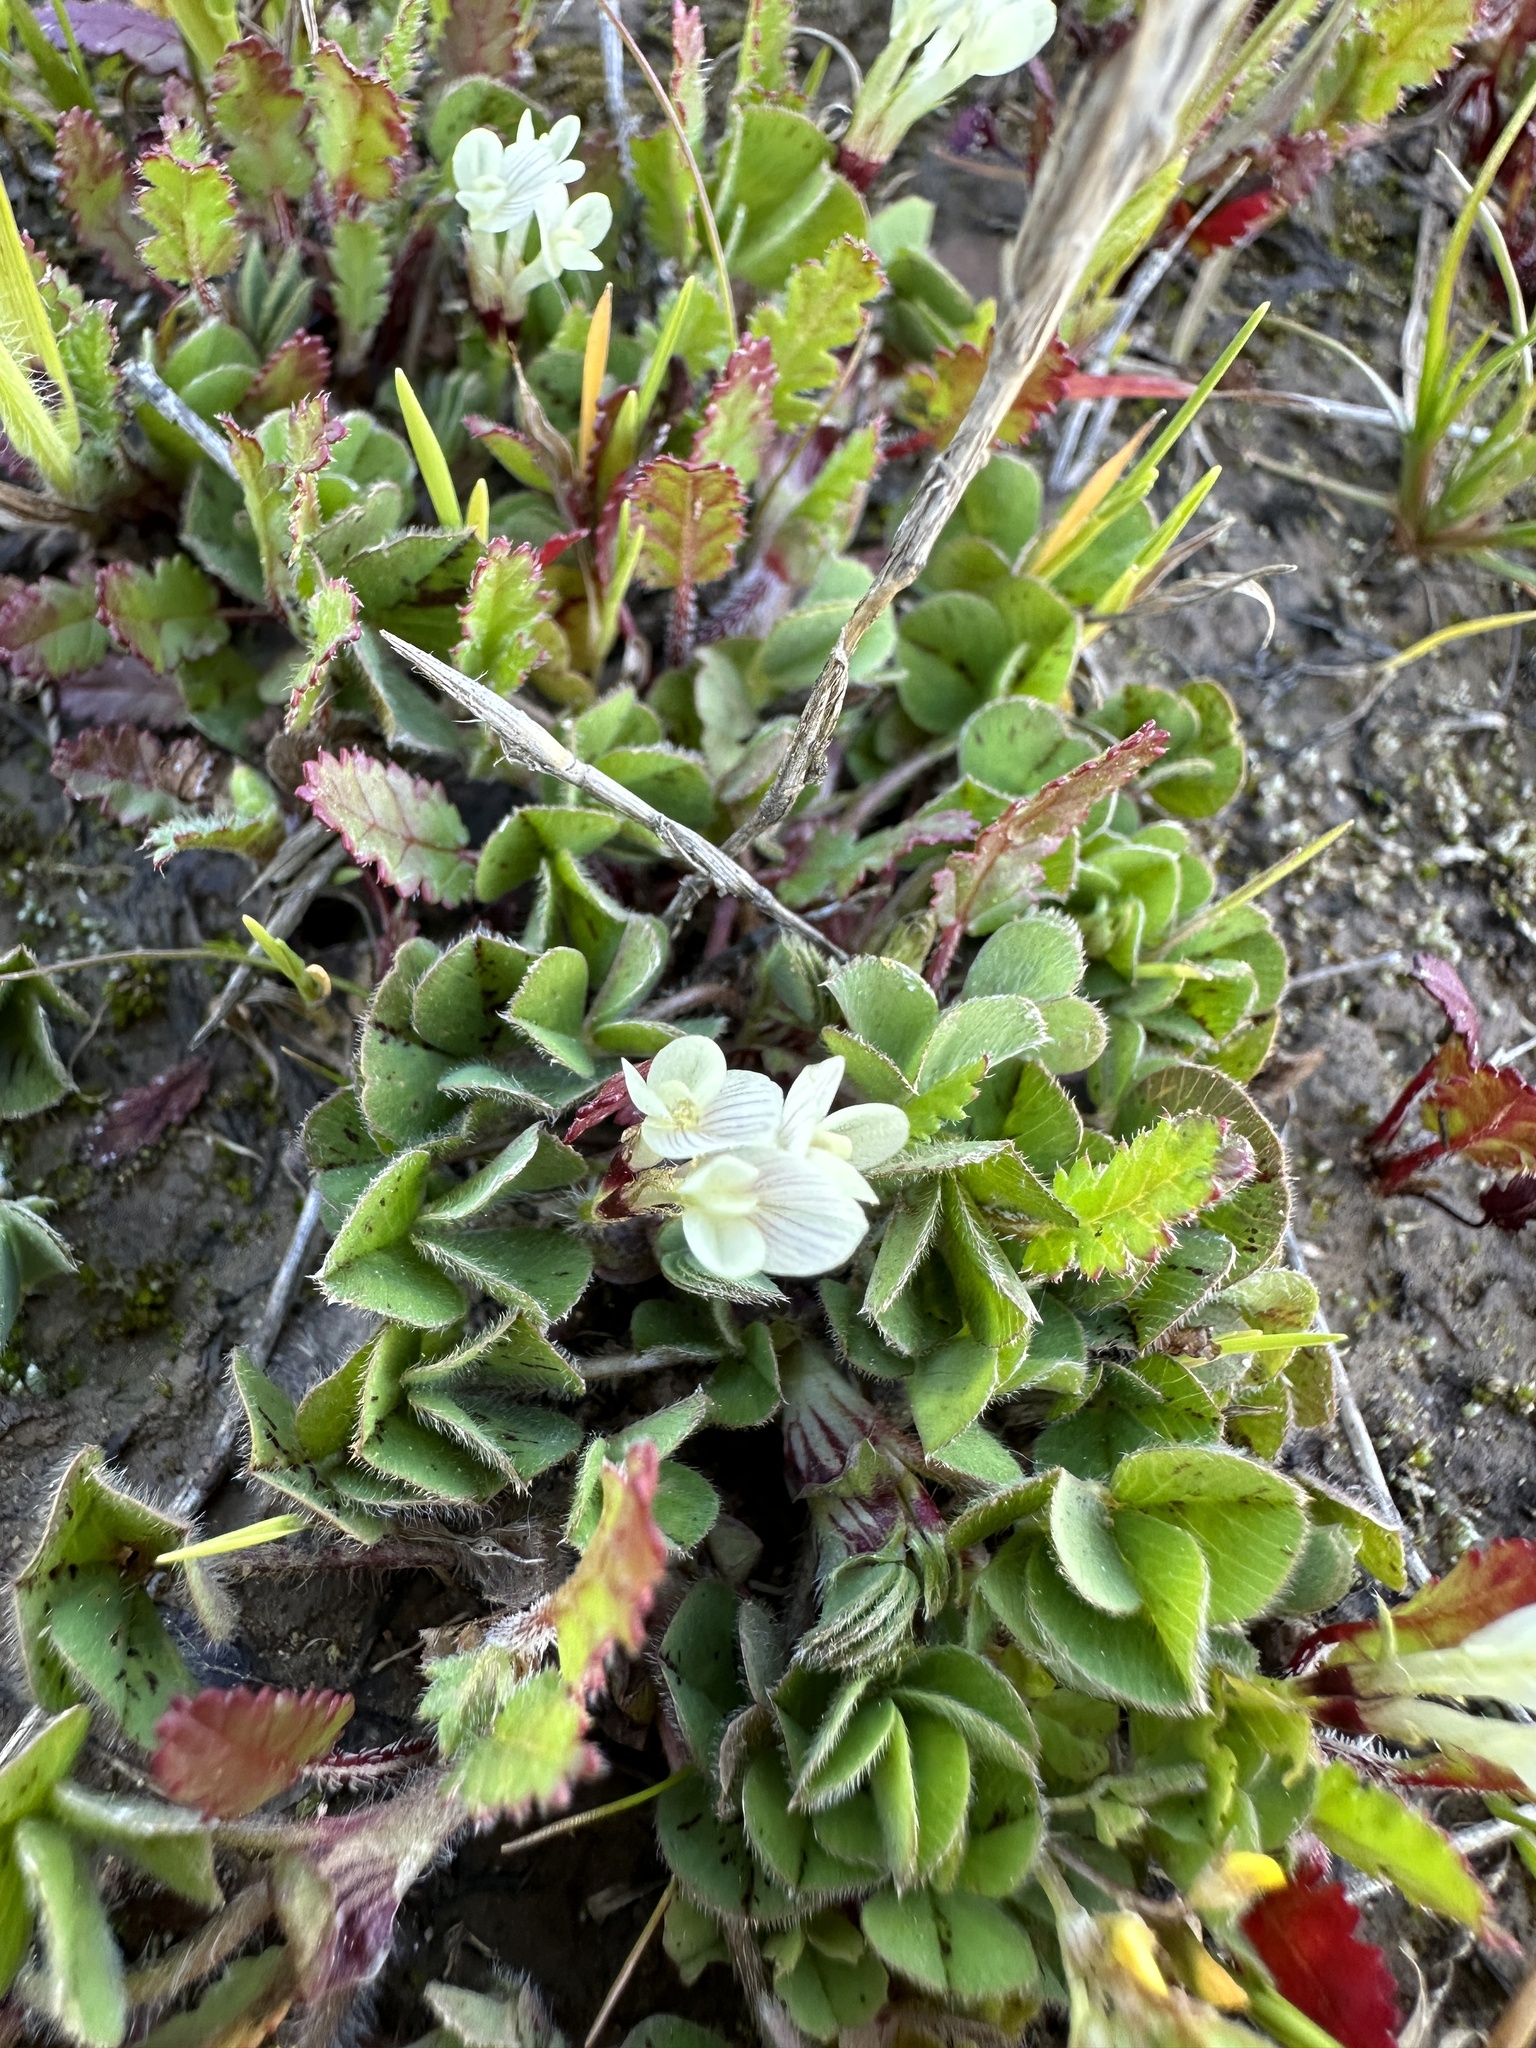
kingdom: Plantae
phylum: Tracheophyta
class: Magnoliopsida
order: Fabales
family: Fabaceae
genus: Trifolium
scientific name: Trifolium subterraneum
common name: Subterranean clover
